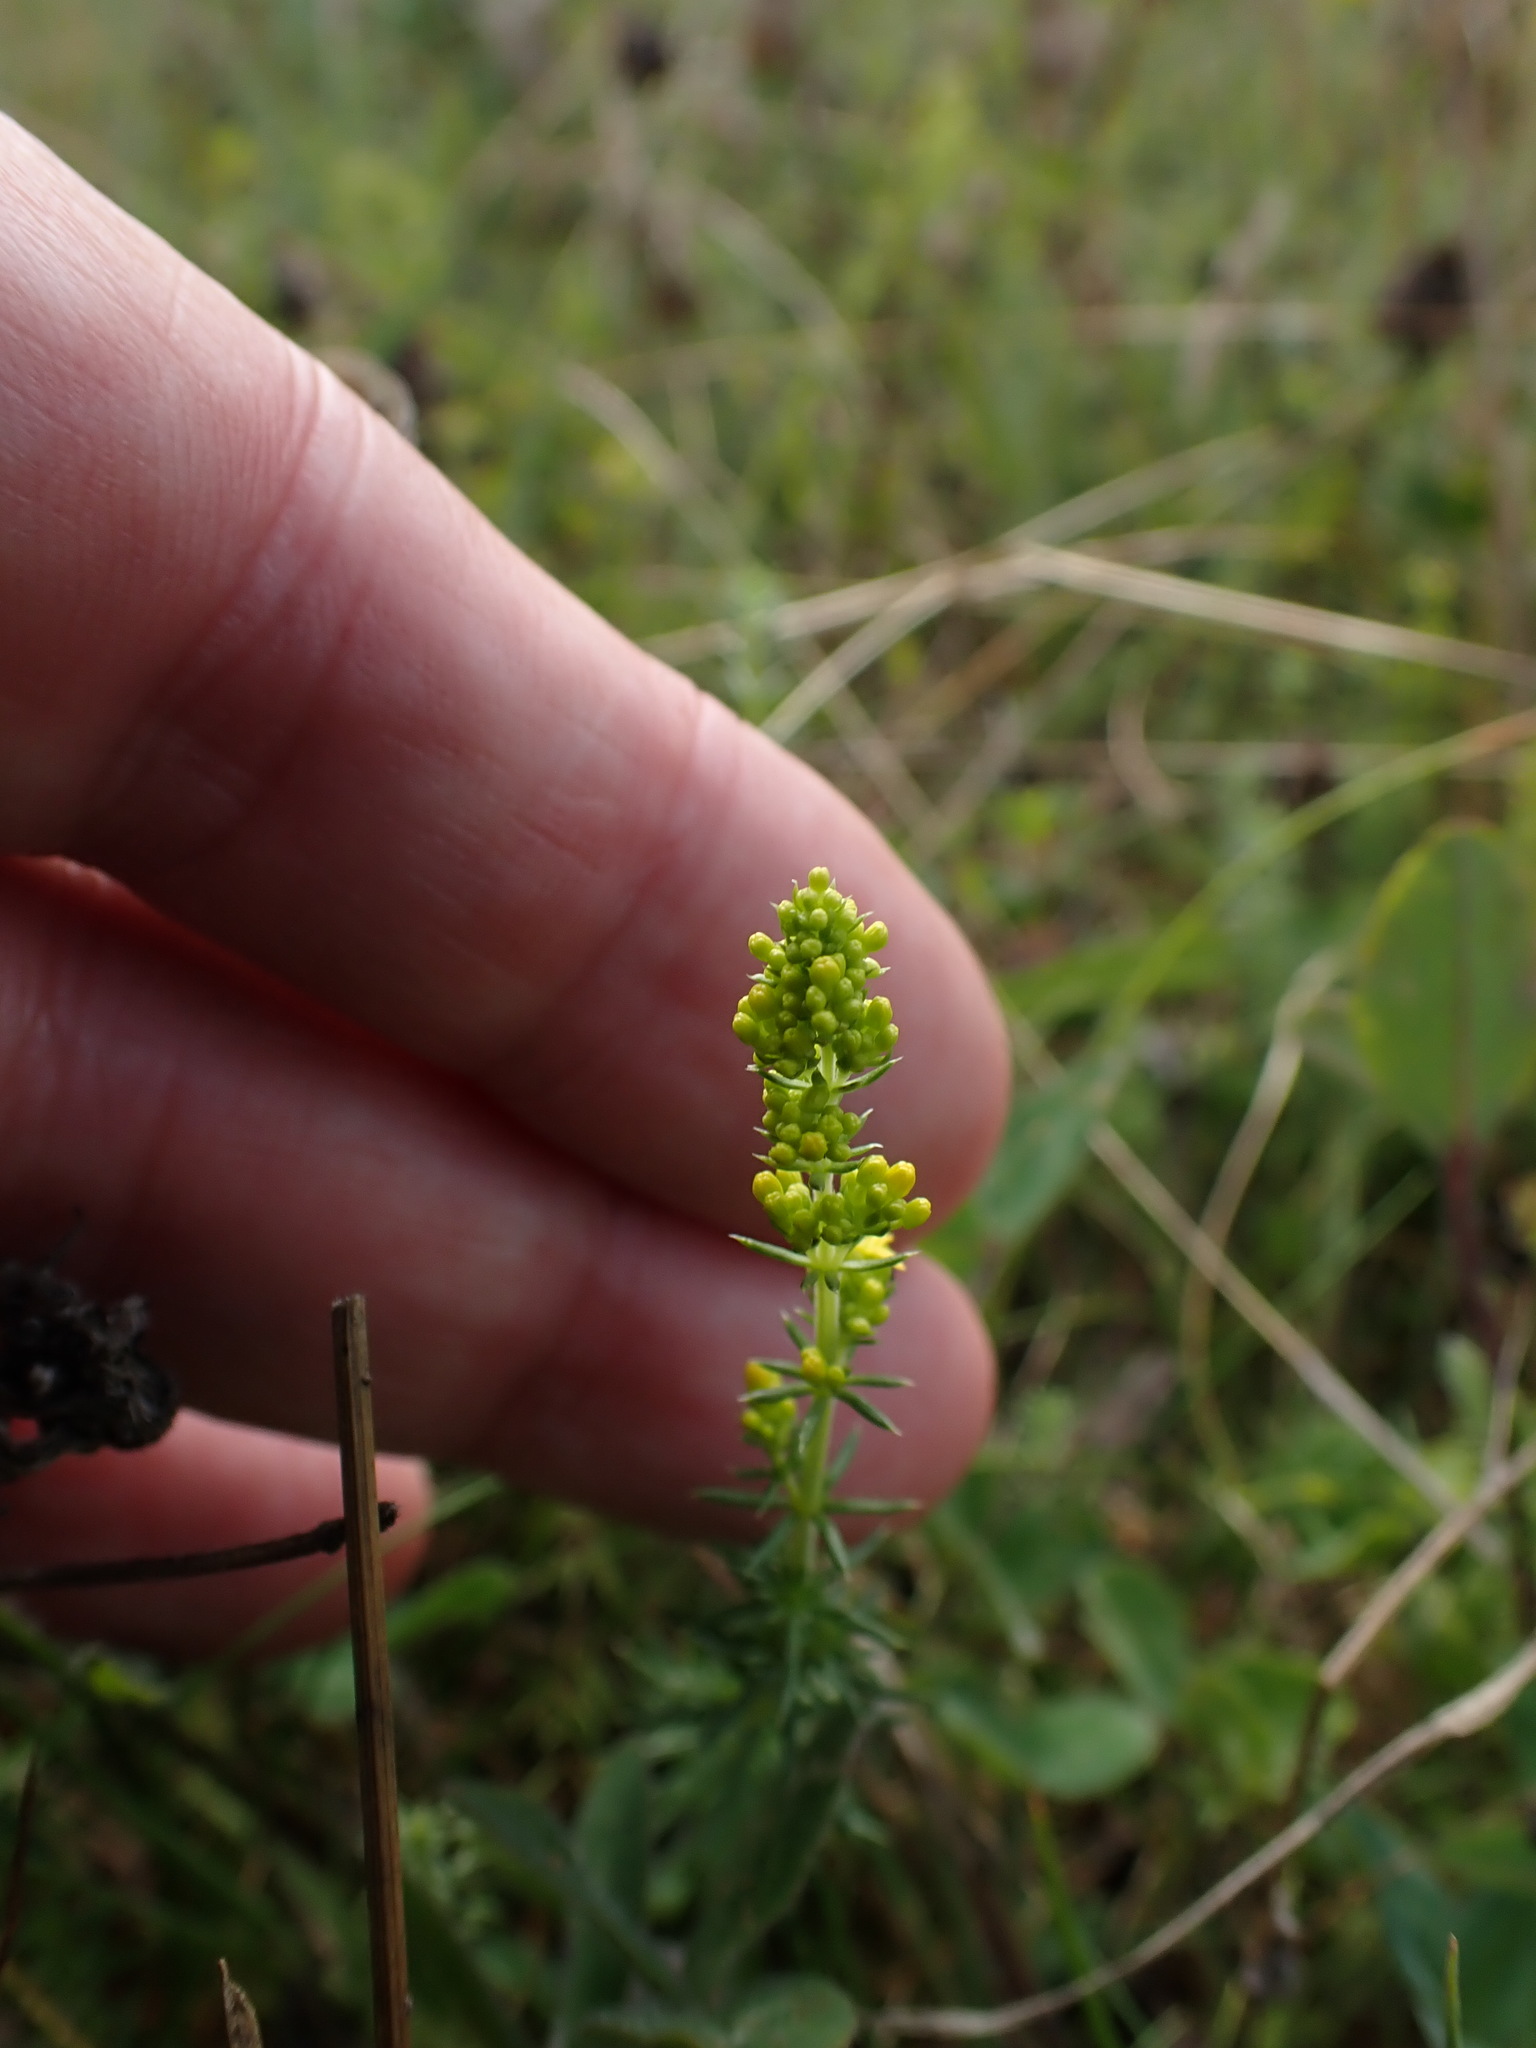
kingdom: Plantae
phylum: Tracheophyta
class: Magnoliopsida
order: Gentianales
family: Rubiaceae
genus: Galium
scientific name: Galium verum
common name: Lady's bedstraw
